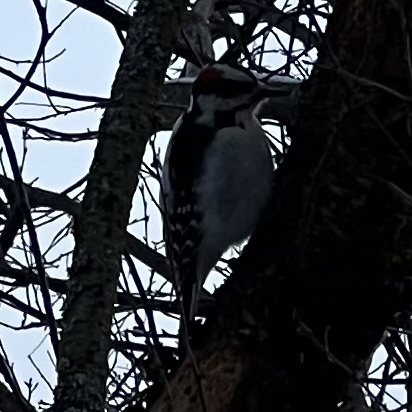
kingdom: Animalia
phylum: Chordata
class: Aves
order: Piciformes
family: Picidae
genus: Leuconotopicus
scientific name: Leuconotopicus villosus
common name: Hairy woodpecker
